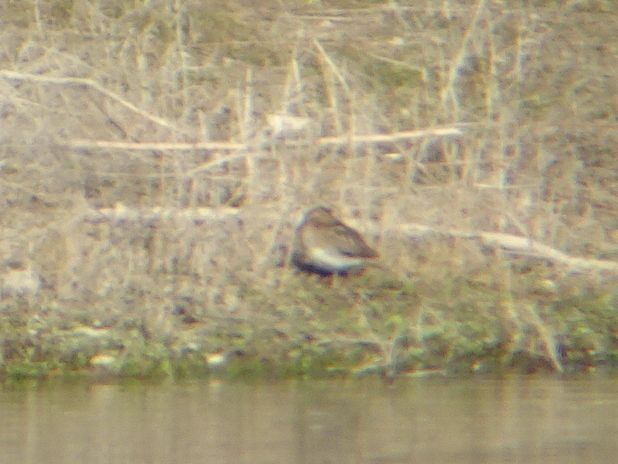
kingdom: Animalia
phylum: Chordata
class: Aves
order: Charadriiformes
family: Scolopacidae
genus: Gallinago
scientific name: Gallinago gallinago
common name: Common snipe
